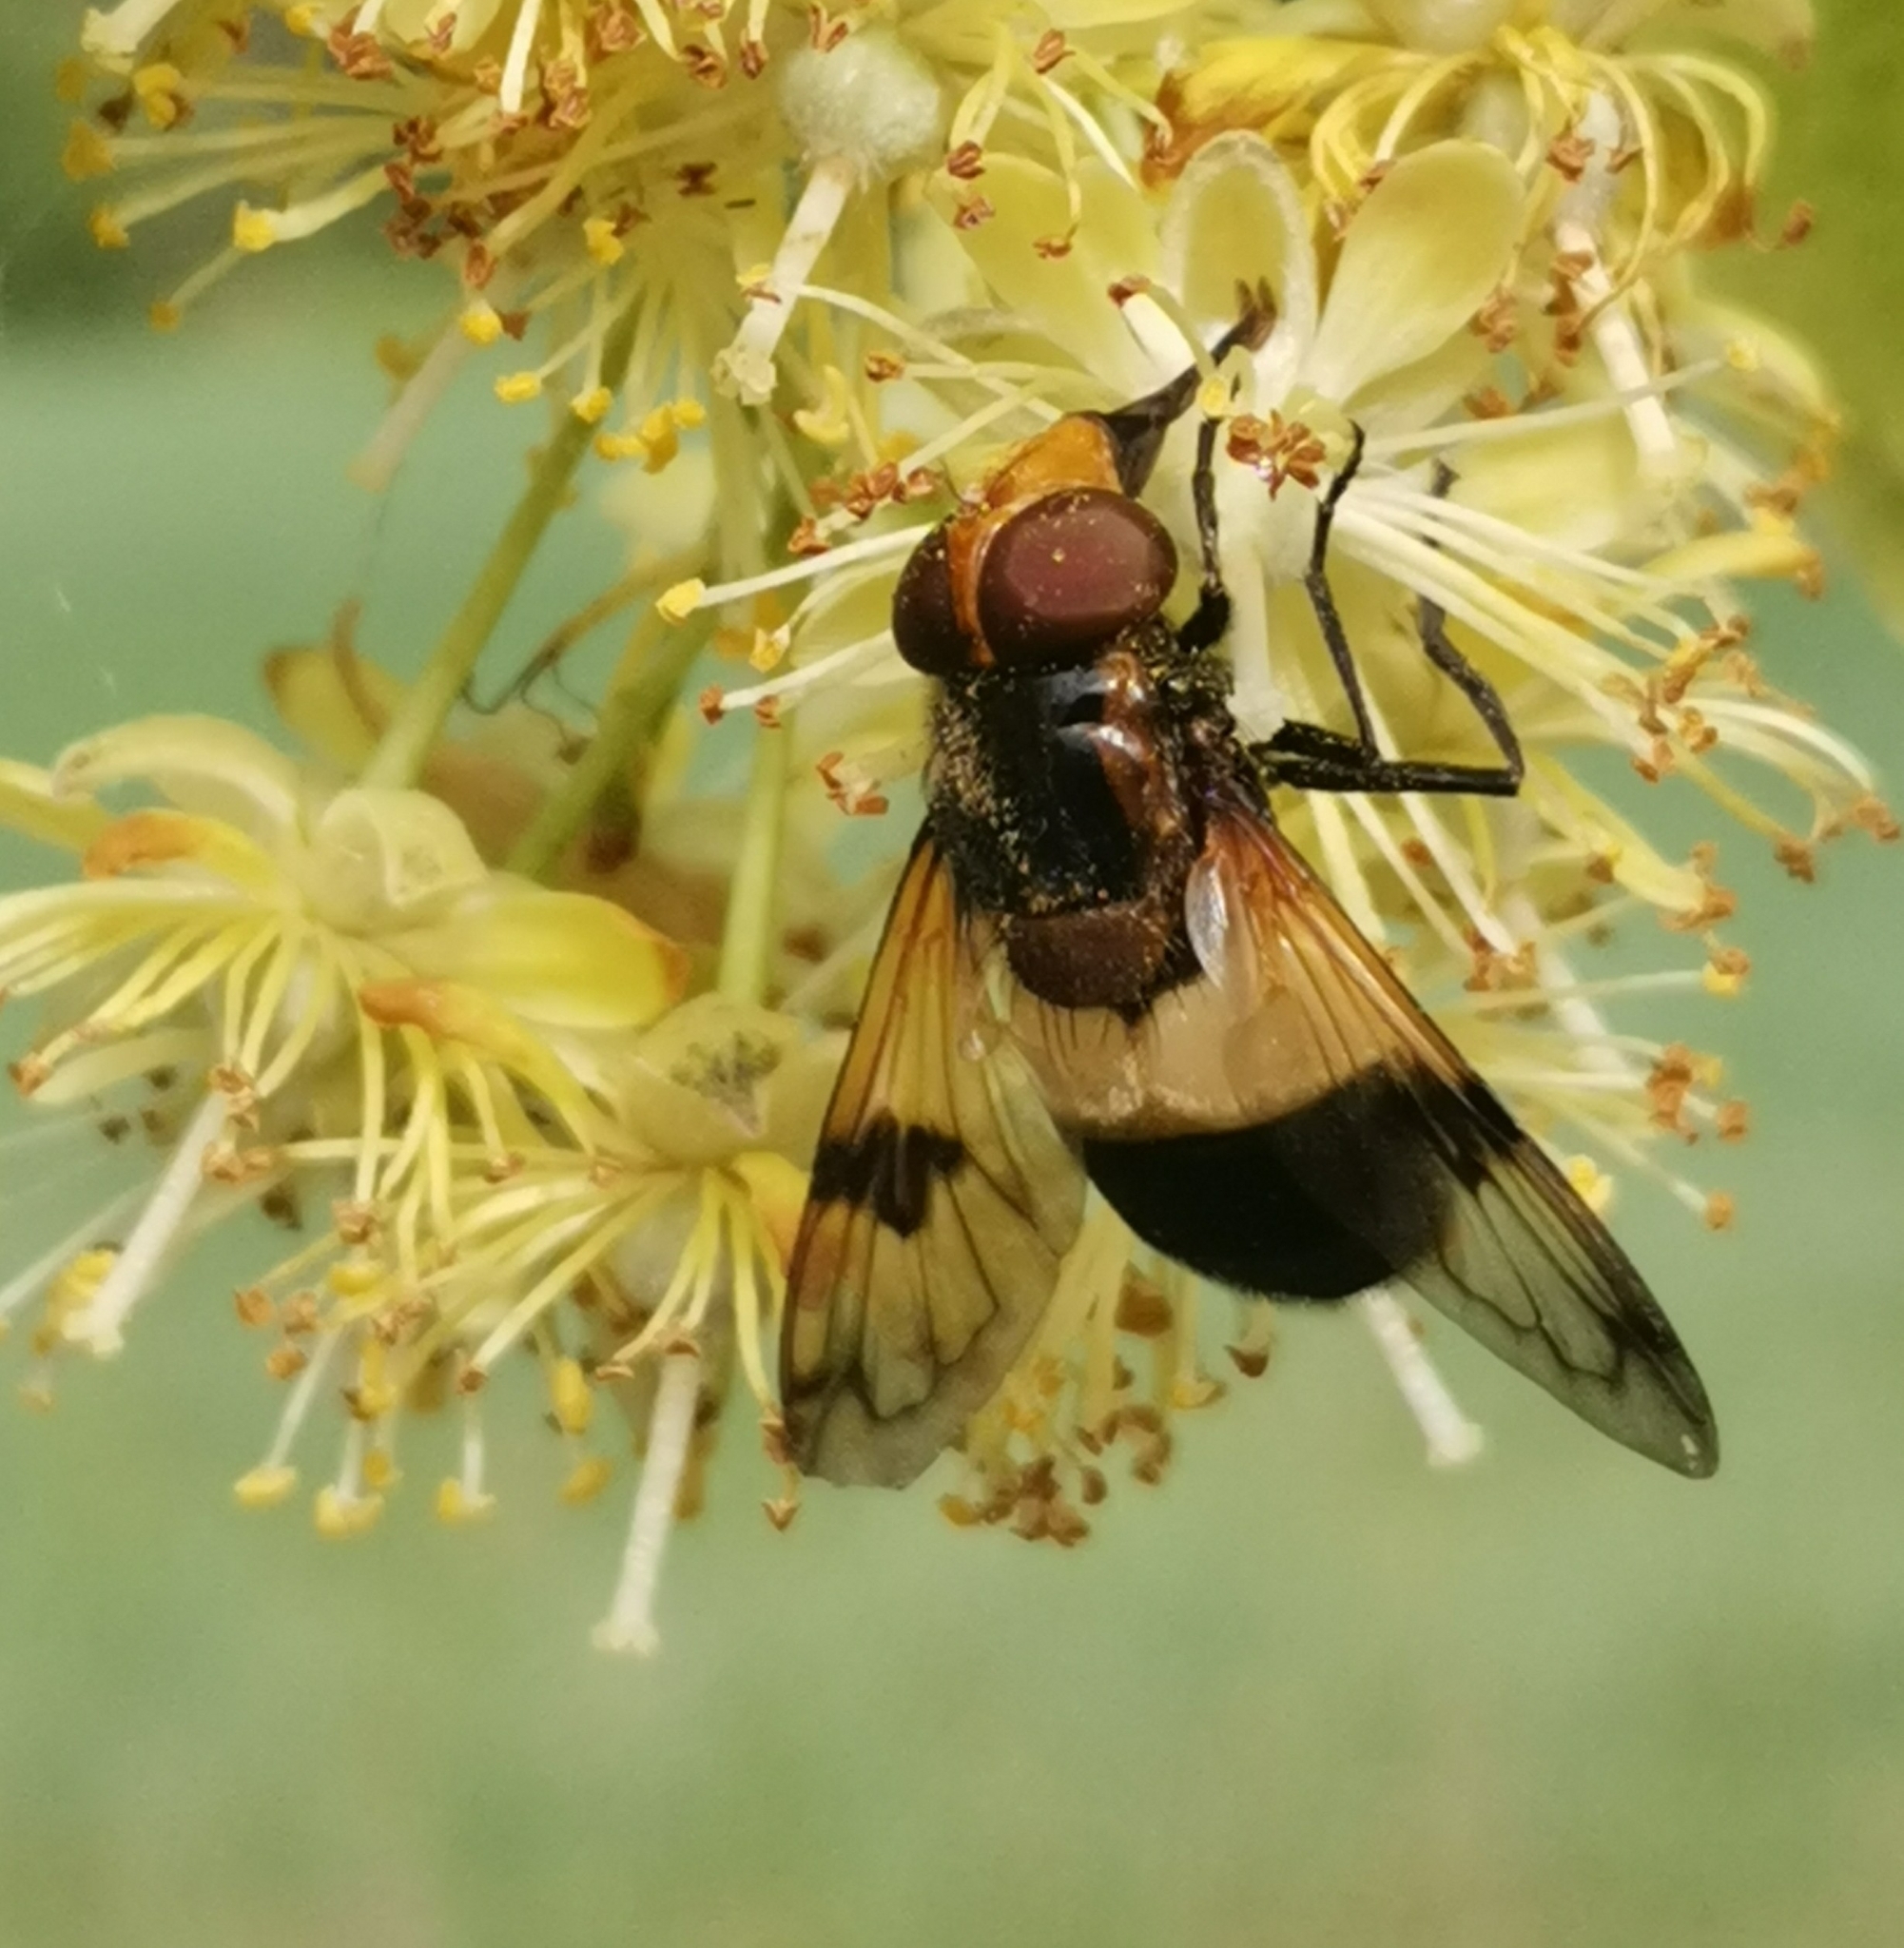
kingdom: Animalia
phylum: Arthropoda
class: Insecta
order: Diptera
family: Syrphidae
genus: Volucella
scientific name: Volucella pellucens
